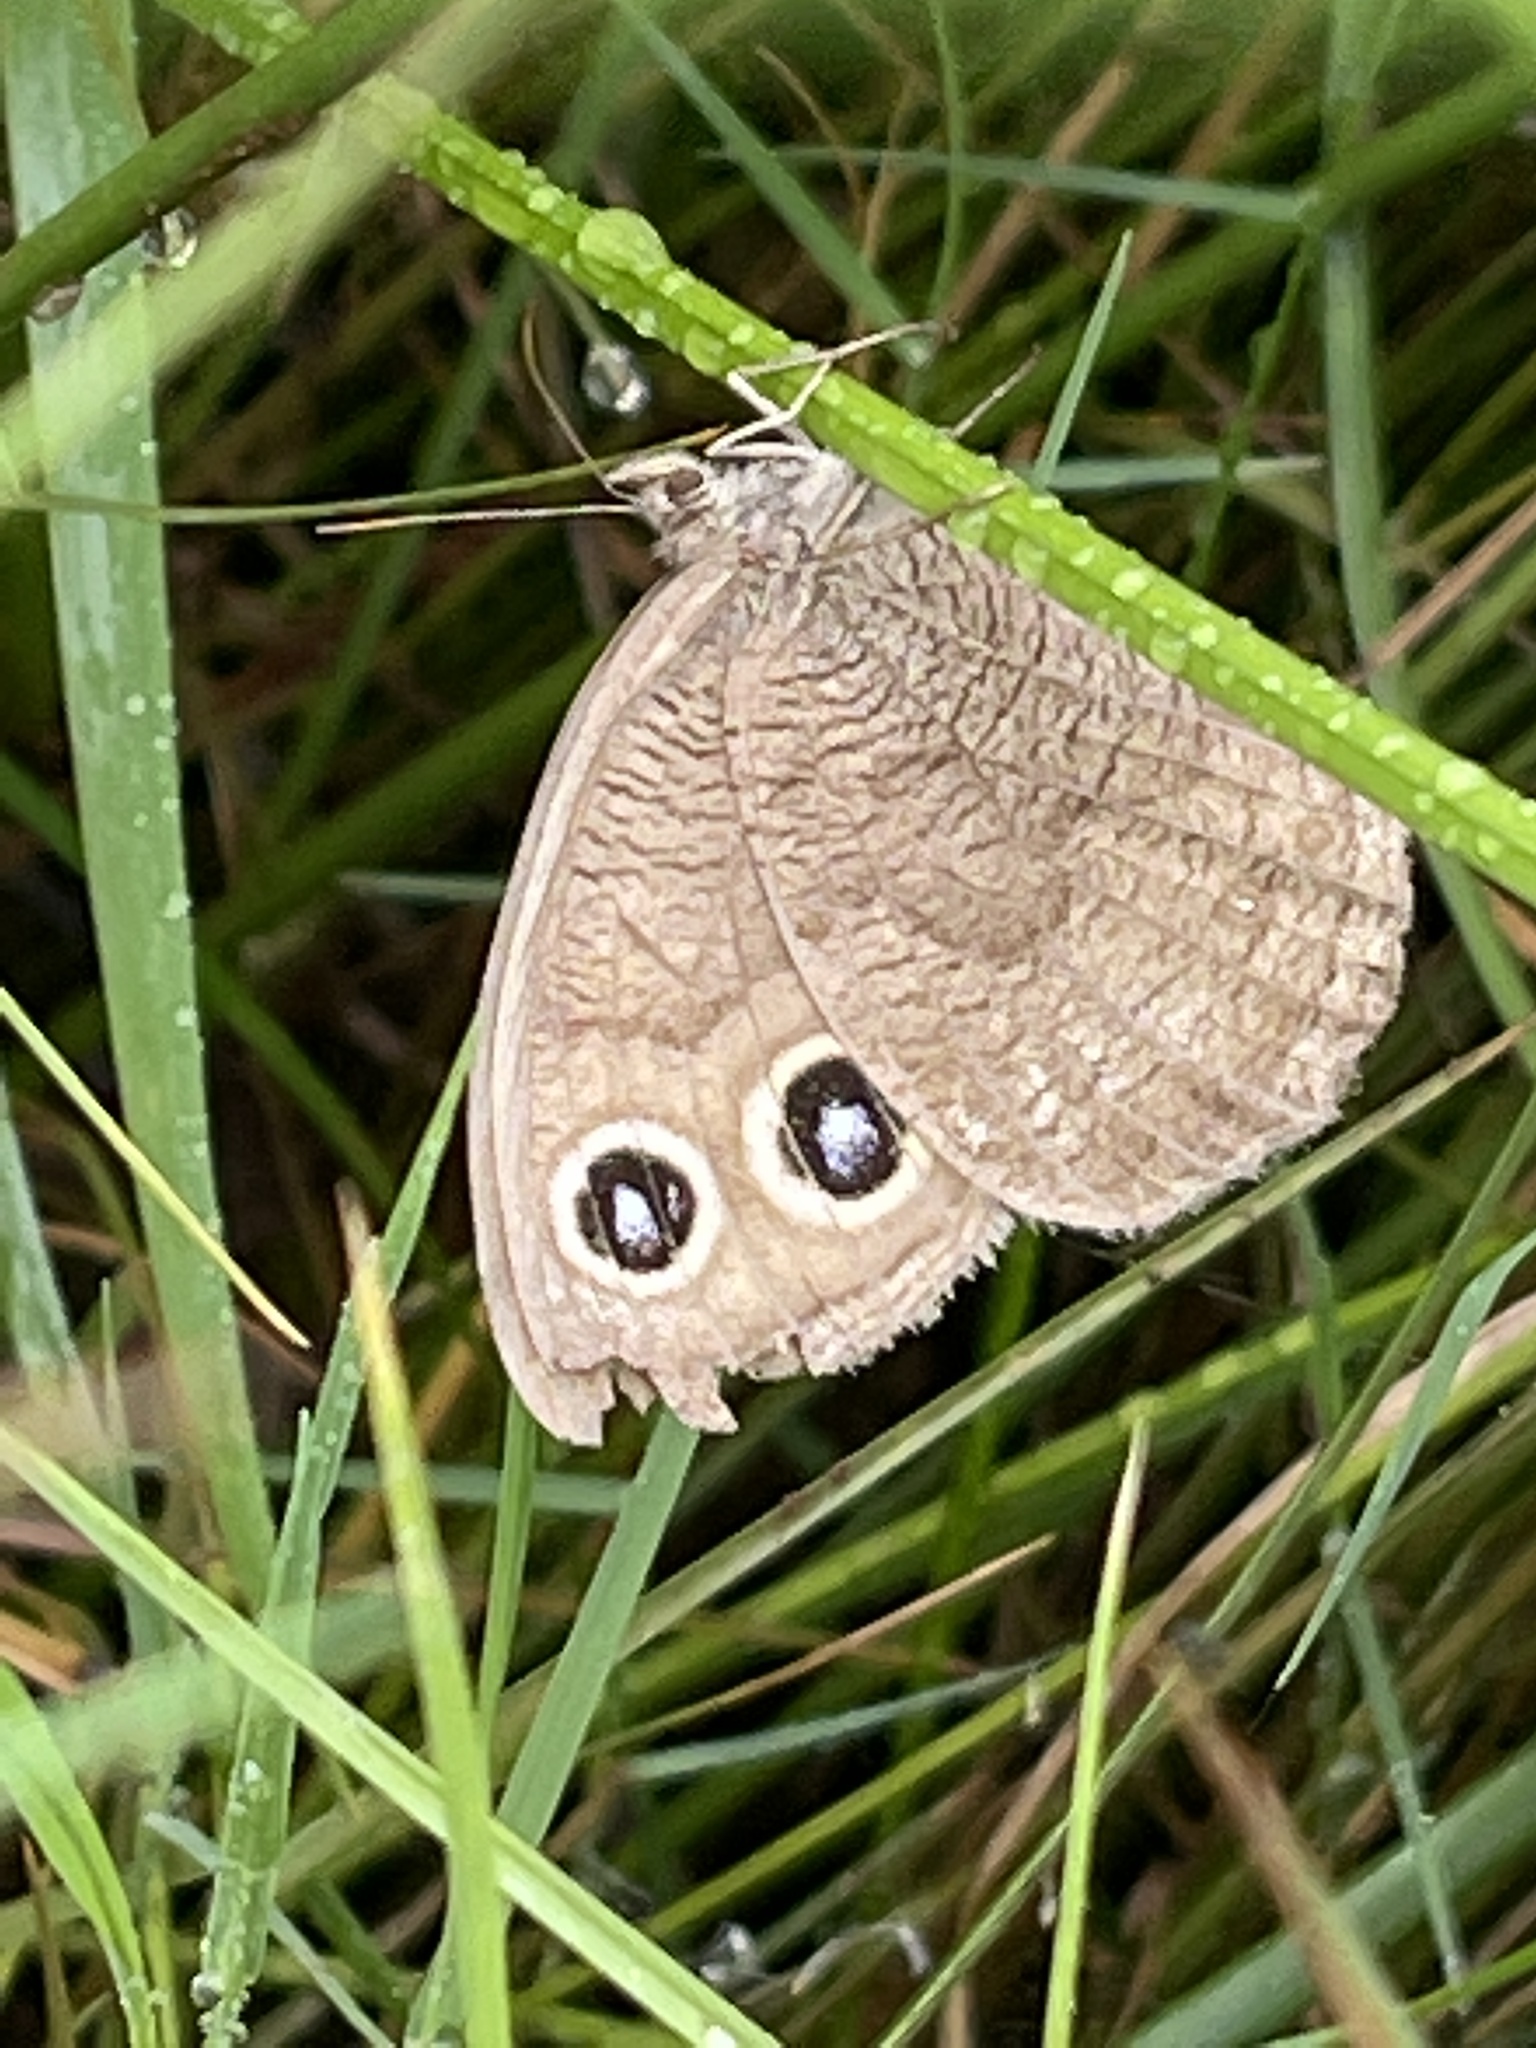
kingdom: Animalia
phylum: Arthropoda
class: Insecta
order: Lepidoptera
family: Nymphalidae
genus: Cercyonis
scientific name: Cercyonis pegala
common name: Common wood-nymph
